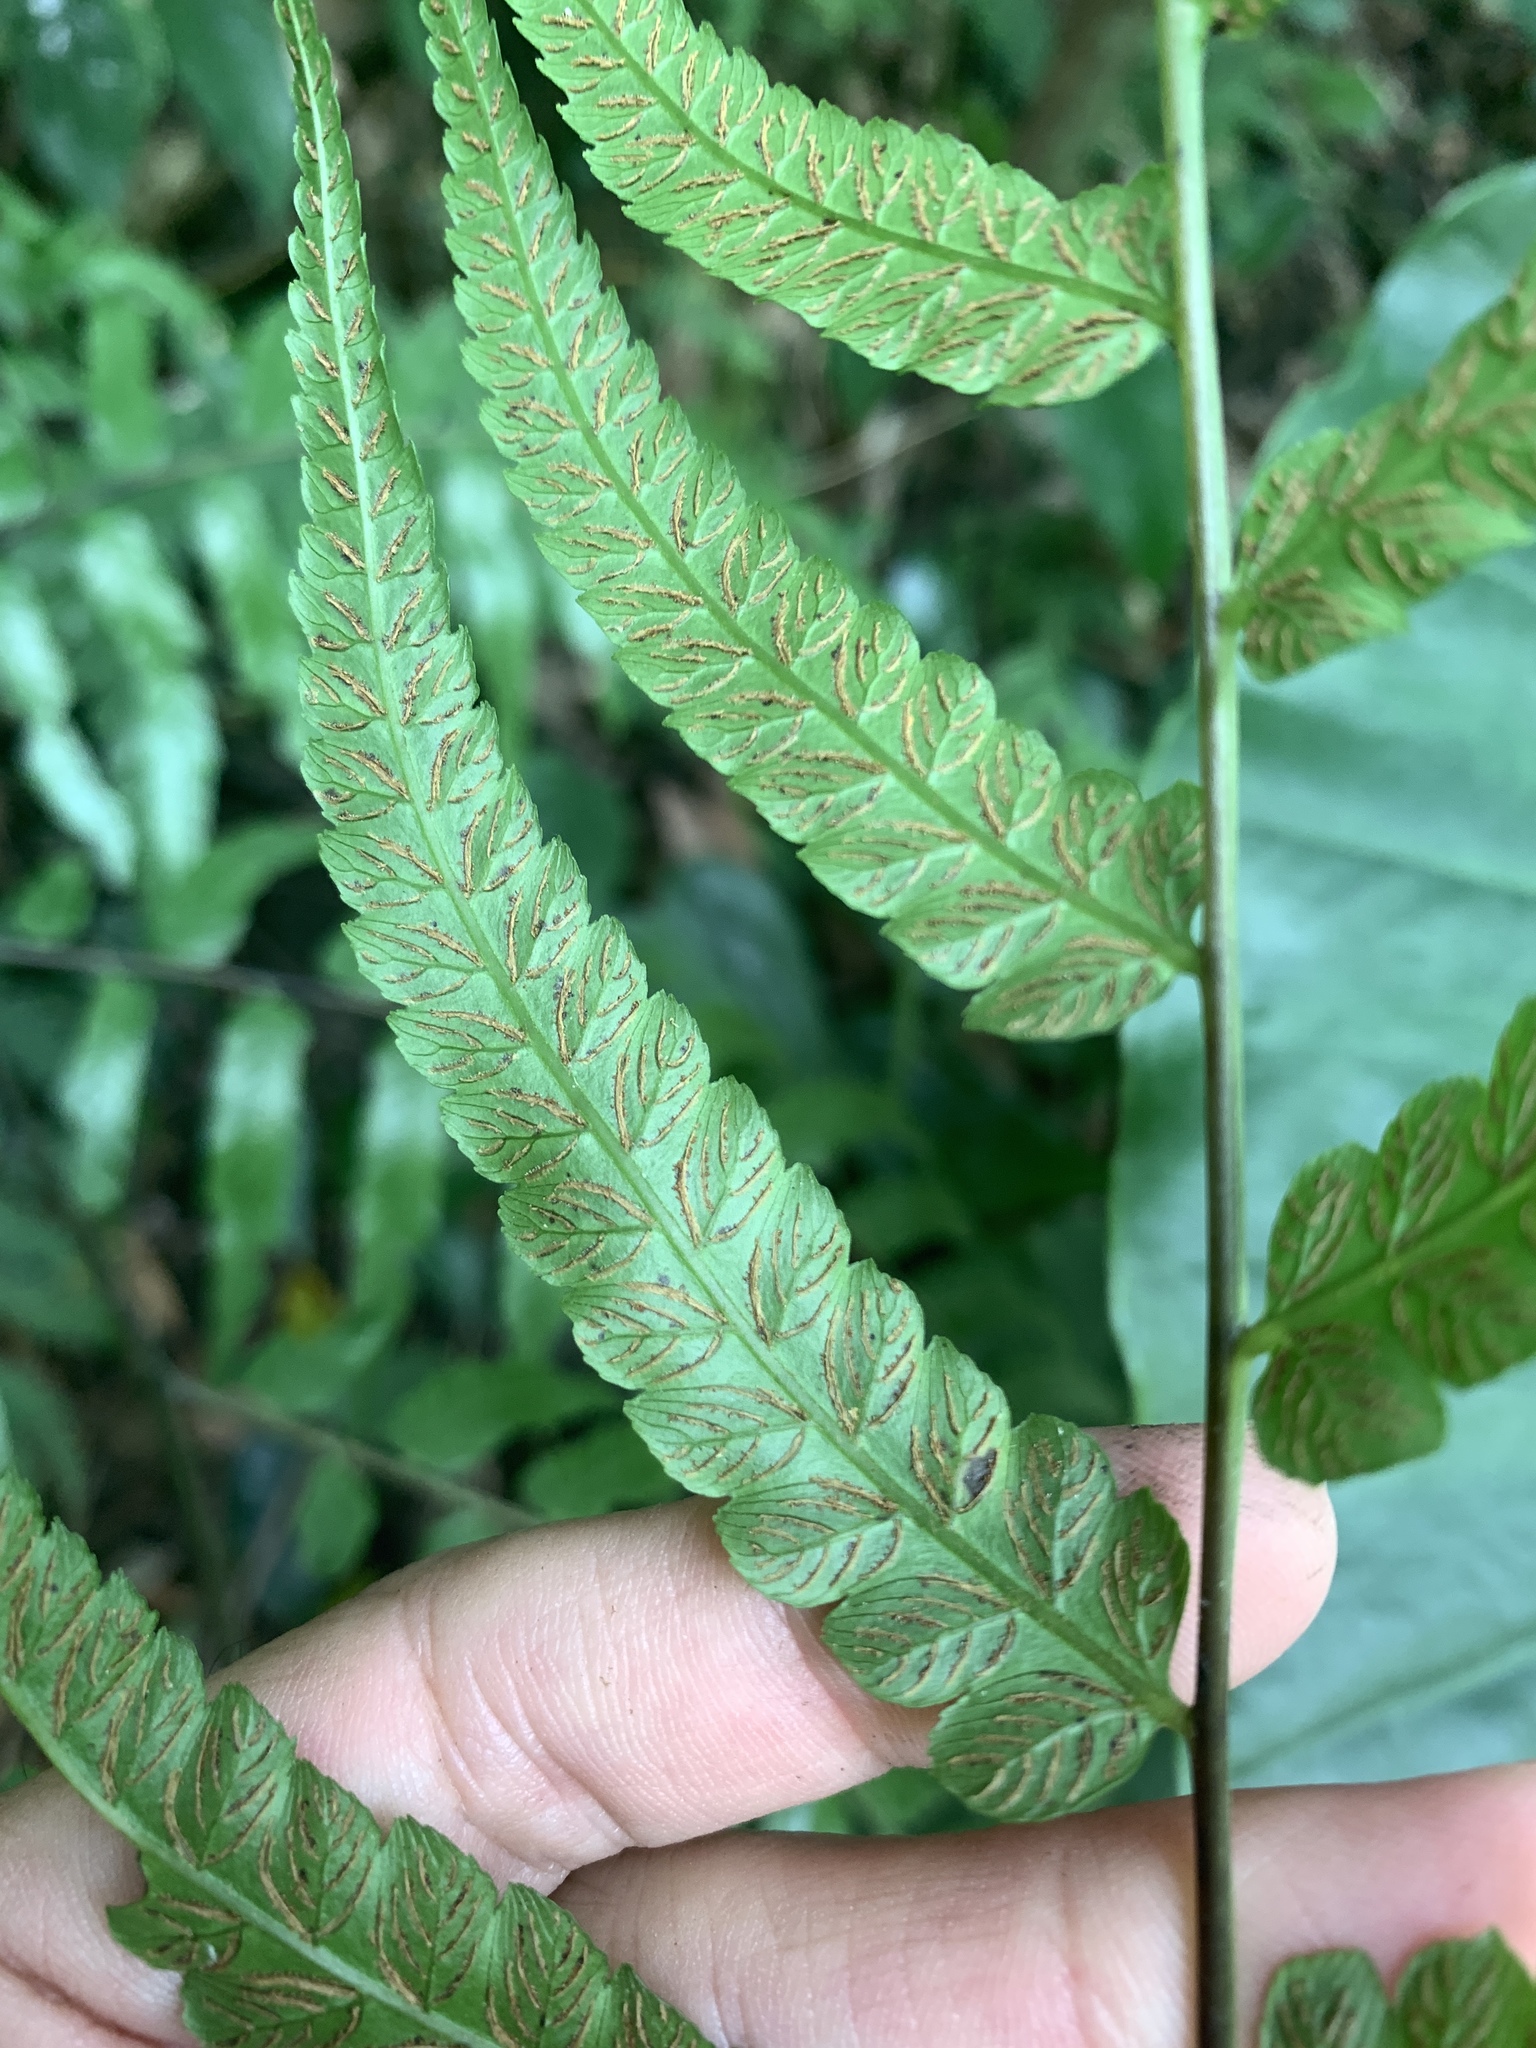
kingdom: Plantae
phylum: Tracheophyta
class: Polypodiopsida
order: Polypodiales
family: Athyriaceae
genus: Diplazium
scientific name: Diplazium dilatatum
